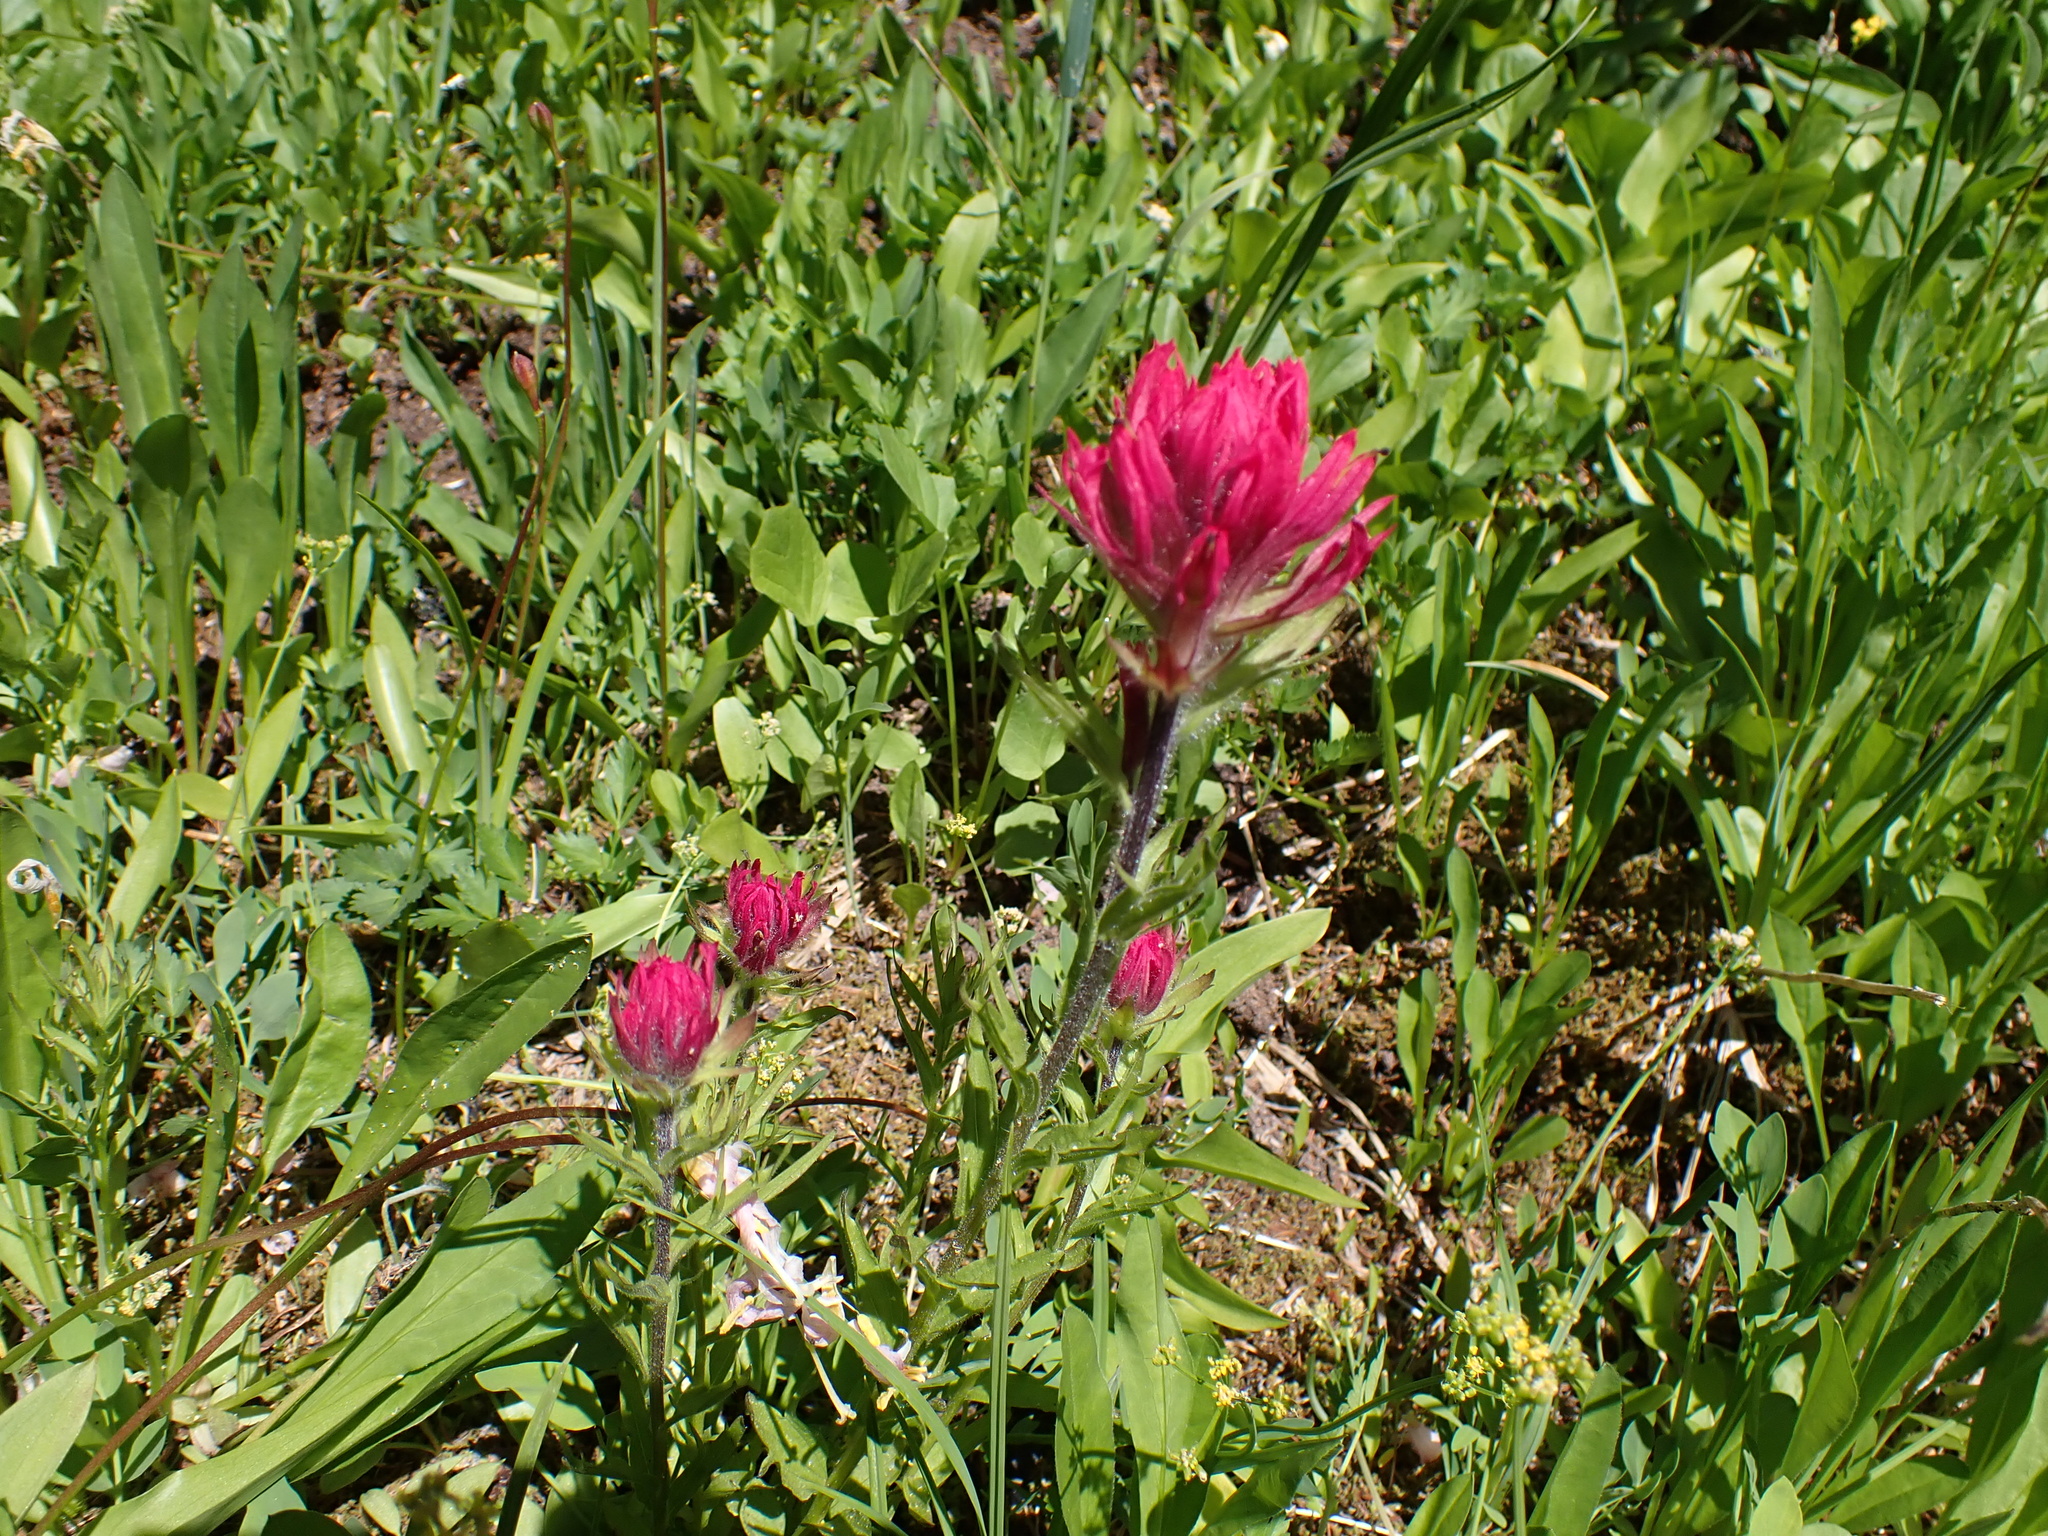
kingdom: Plantae
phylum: Tracheophyta
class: Magnoliopsida
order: Lamiales
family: Orobanchaceae
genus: Castilleja
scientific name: Castilleja parviflora
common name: Mountain paintbrush
